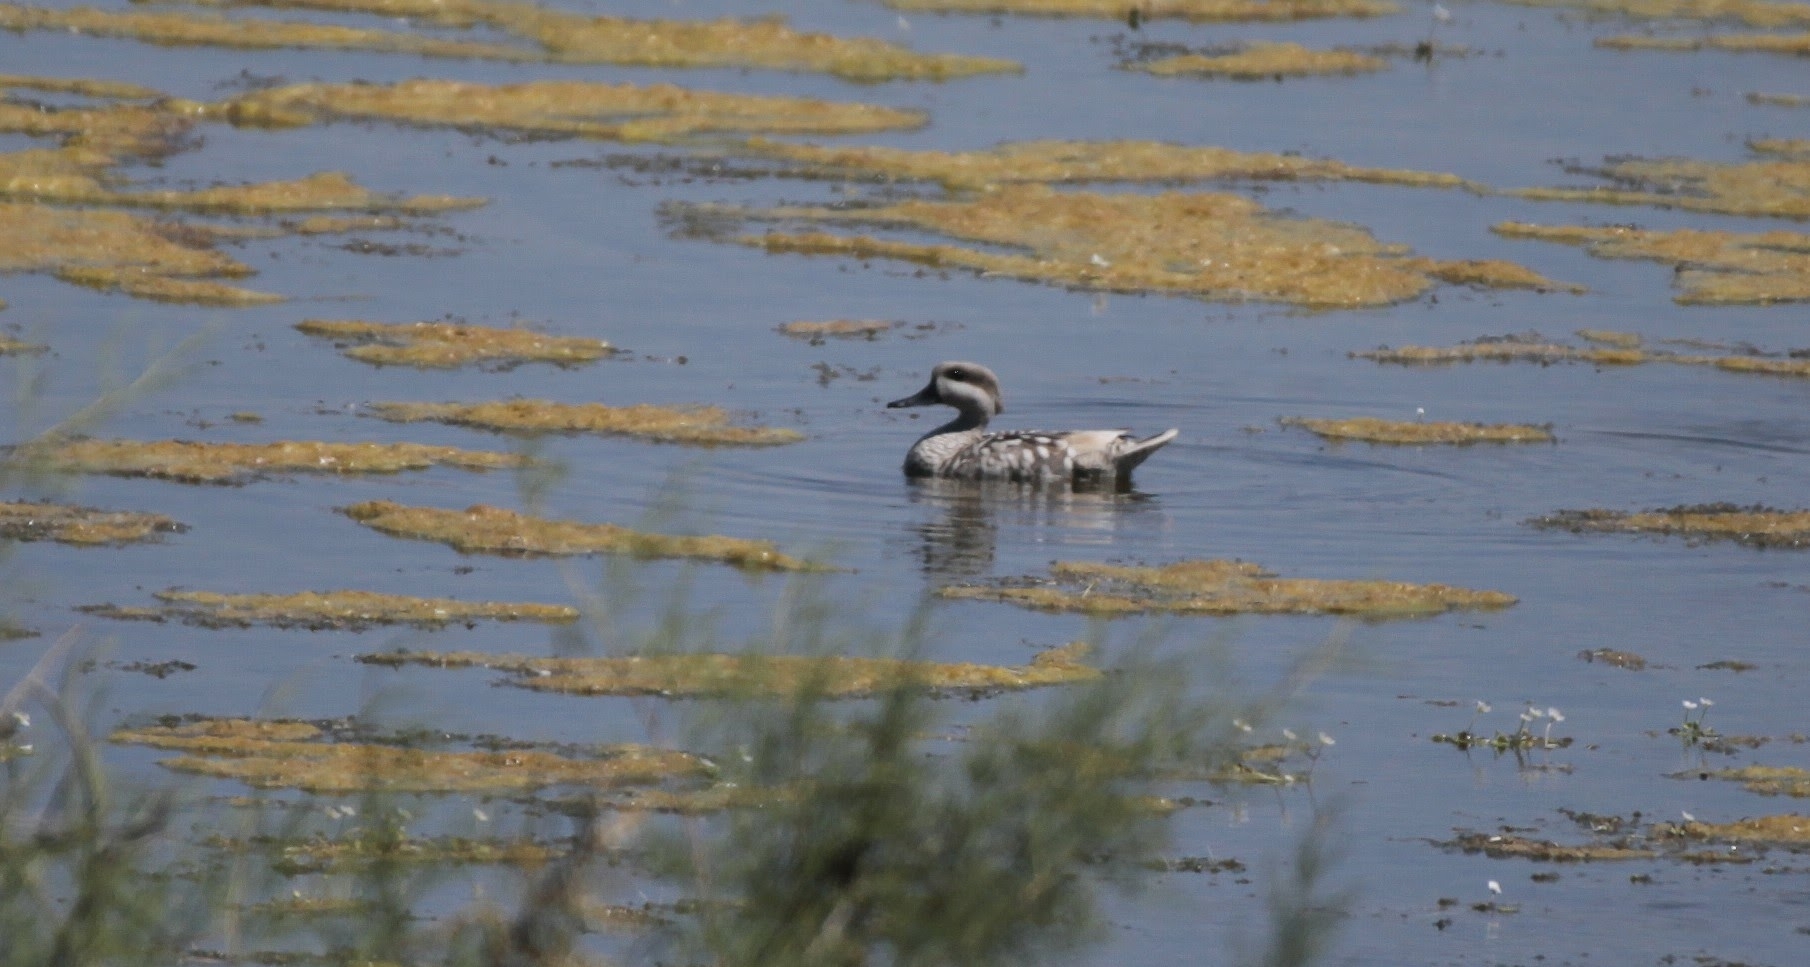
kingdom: Animalia
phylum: Chordata
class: Aves
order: Anseriformes
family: Anatidae
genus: Marmaronetta
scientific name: Marmaronetta angustirostris
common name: Marbled duck
